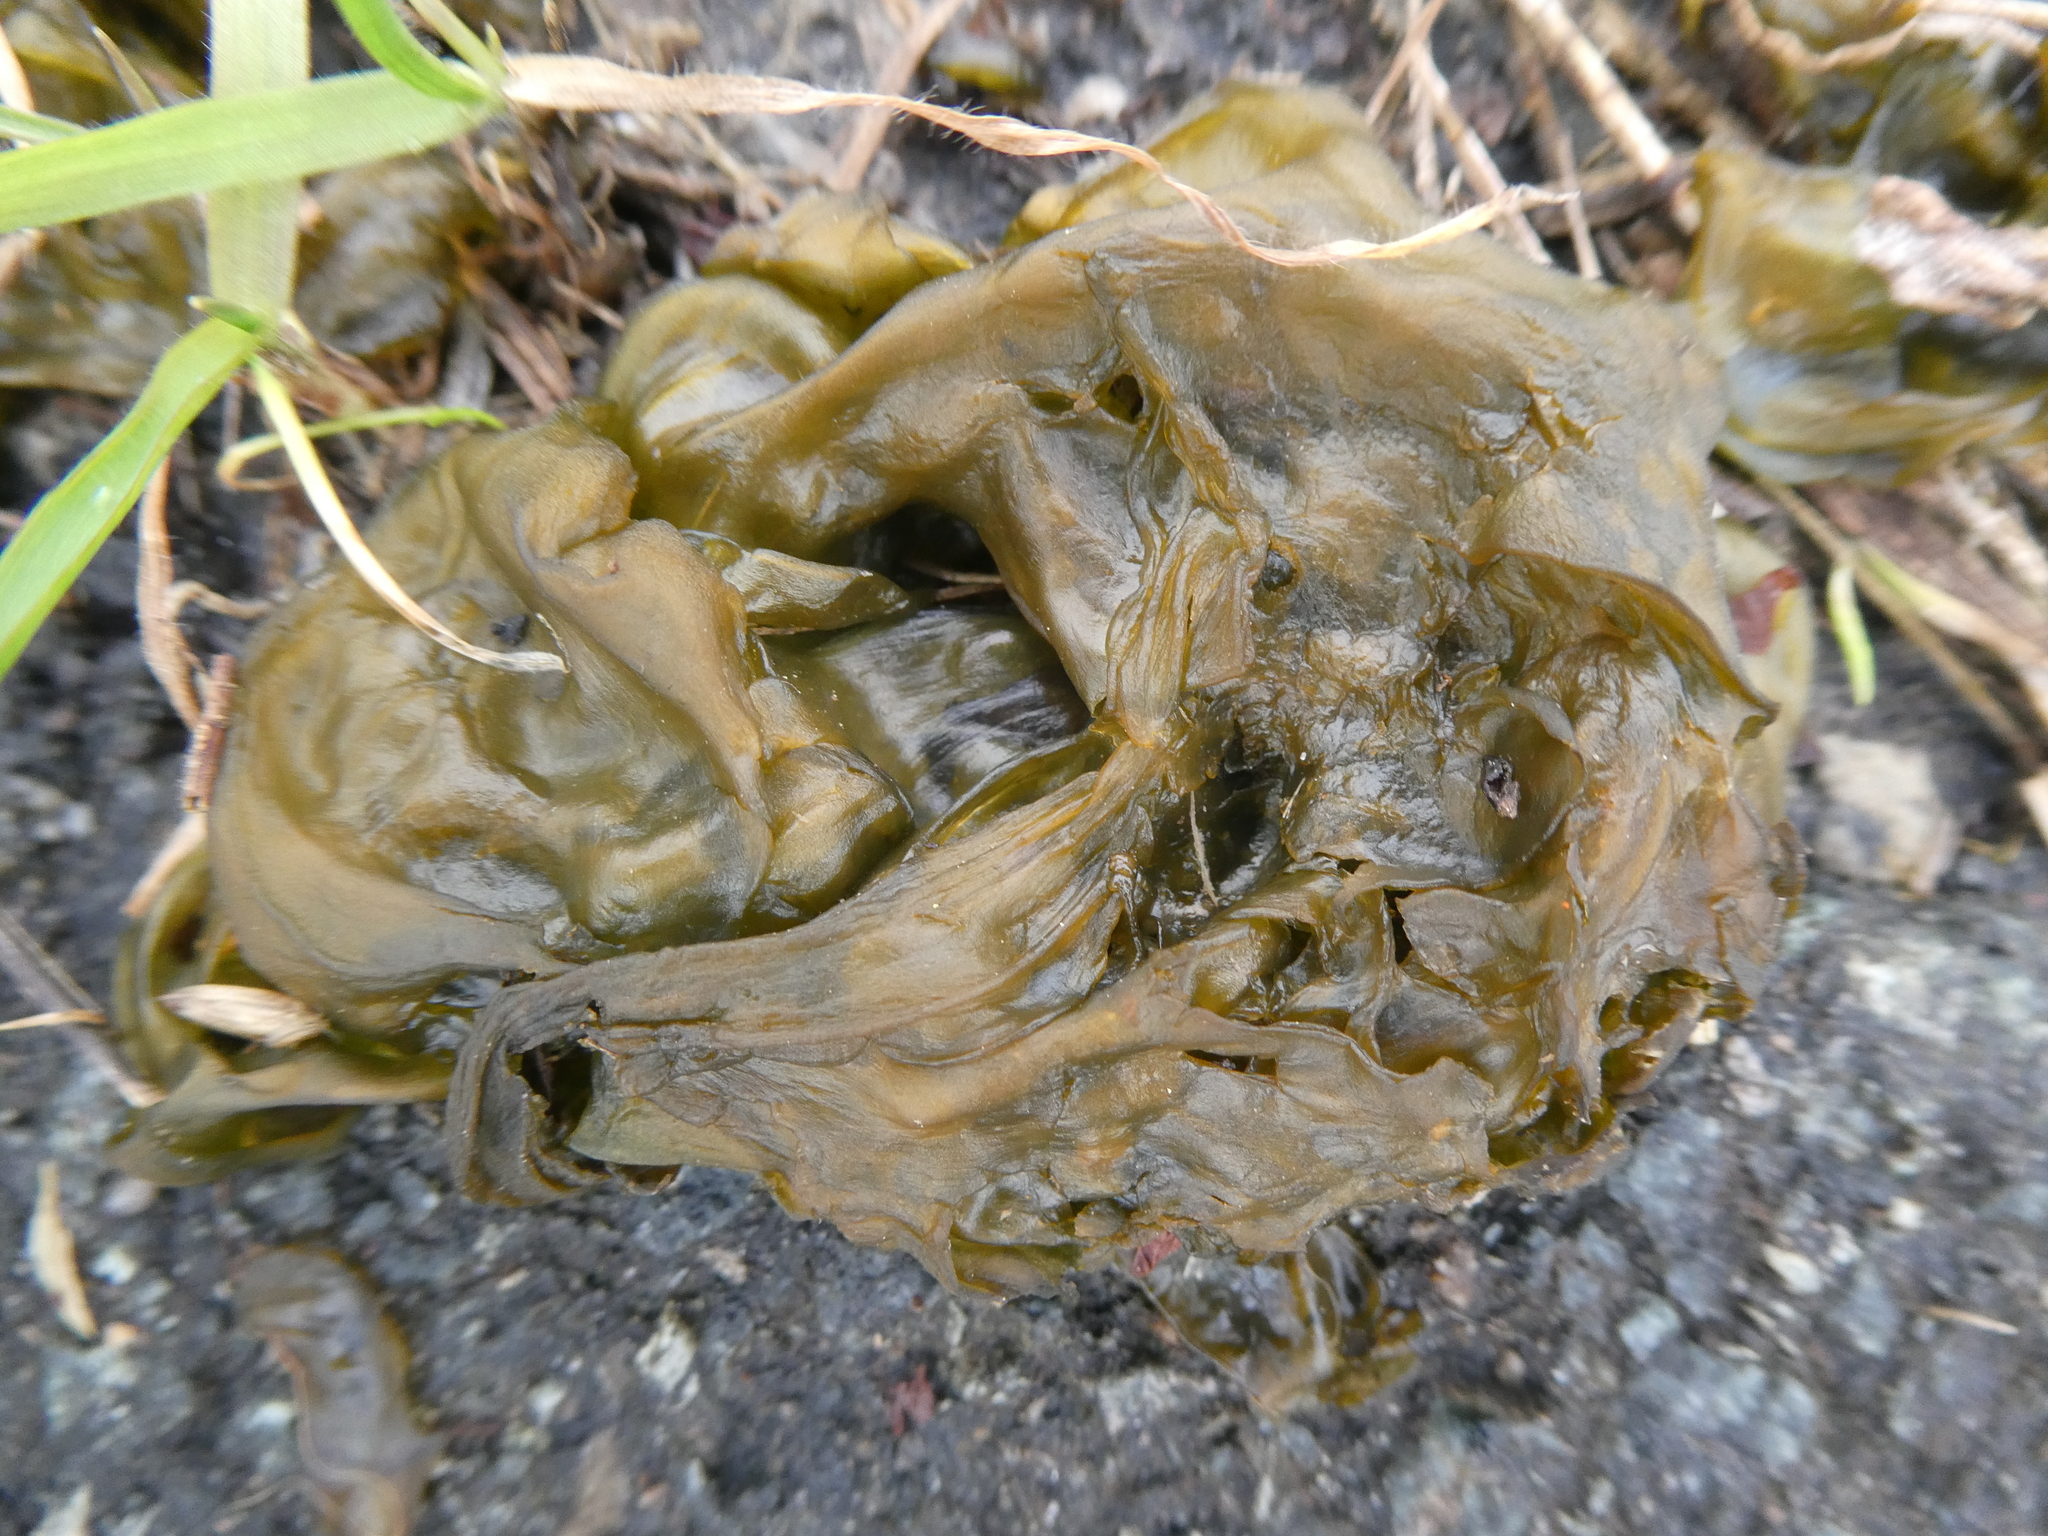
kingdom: Bacteria
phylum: Cyanobacteria
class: Cyanobacteriia
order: Cyanobacteriales
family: Nostocaceae
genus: Nostoc
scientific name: Nostoc commune
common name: Star jelly
